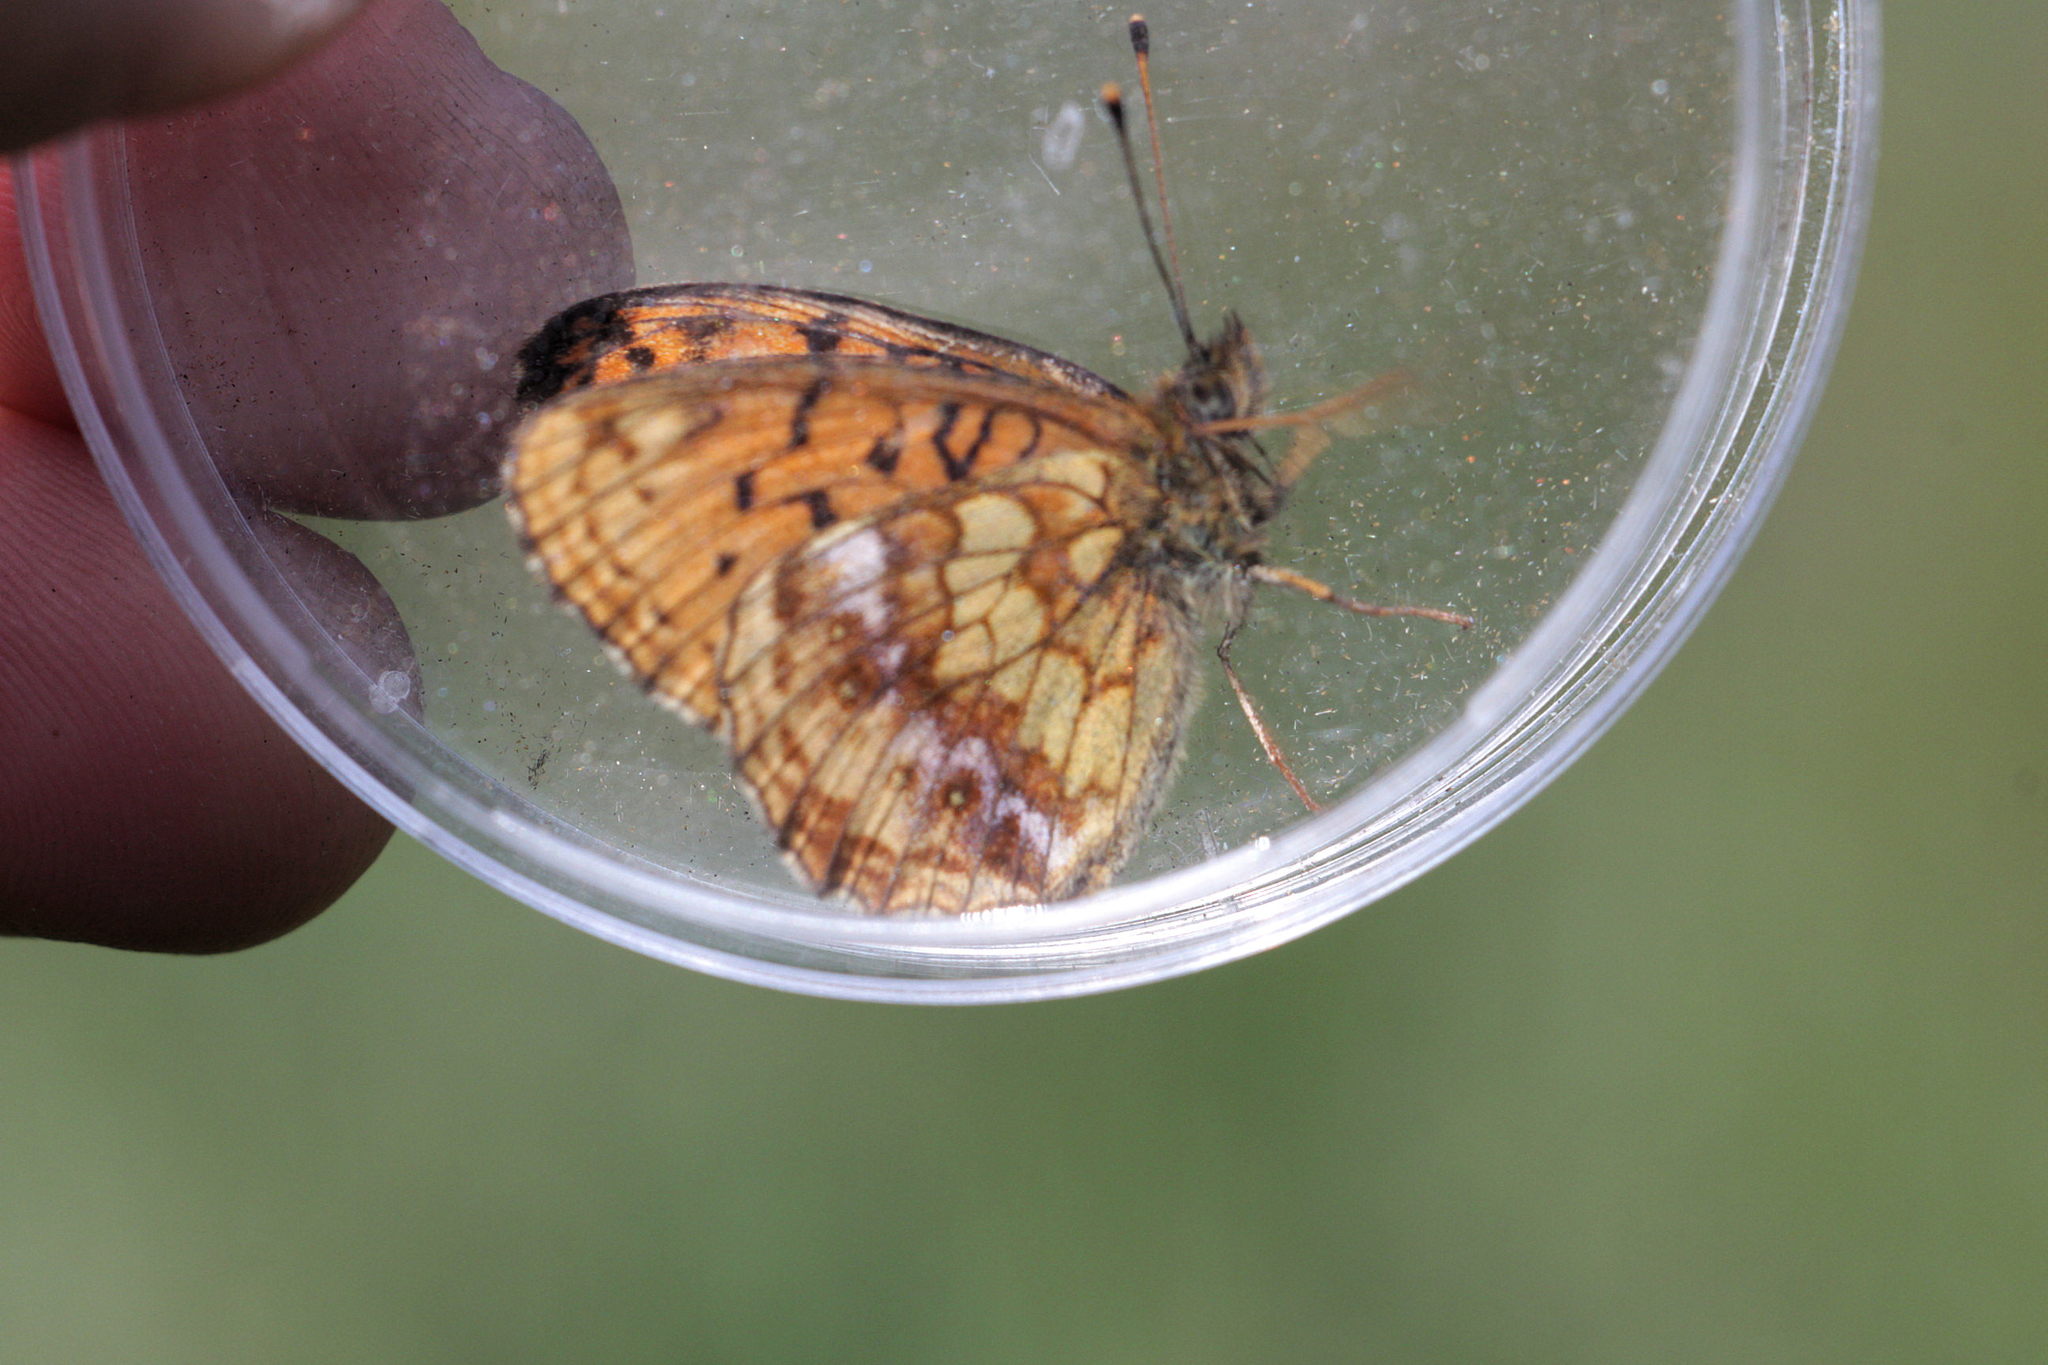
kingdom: Animalia
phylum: Arthropoda
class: Insecta
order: Lepidoptera
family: Nymphalidae
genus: Brenthis
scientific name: Brenthis ino
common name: Lesser marbled fritillary
